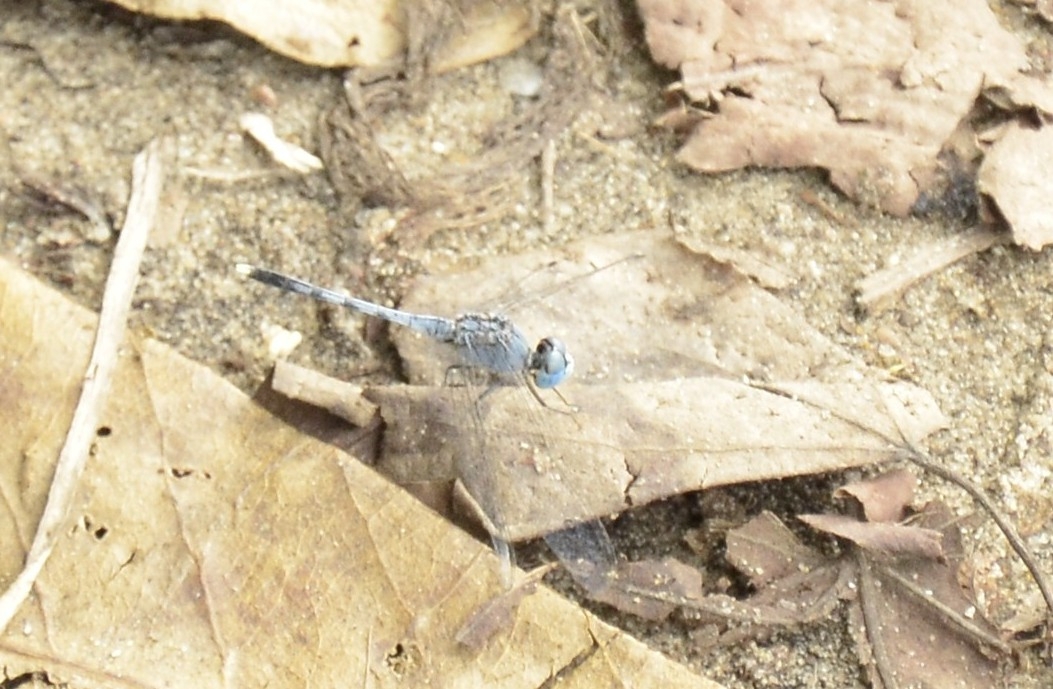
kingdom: Animalia
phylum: Arthropoda
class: Insecta
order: Odonata
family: Libellulidae
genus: Diplacodes
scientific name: Diplacodes trivialis
